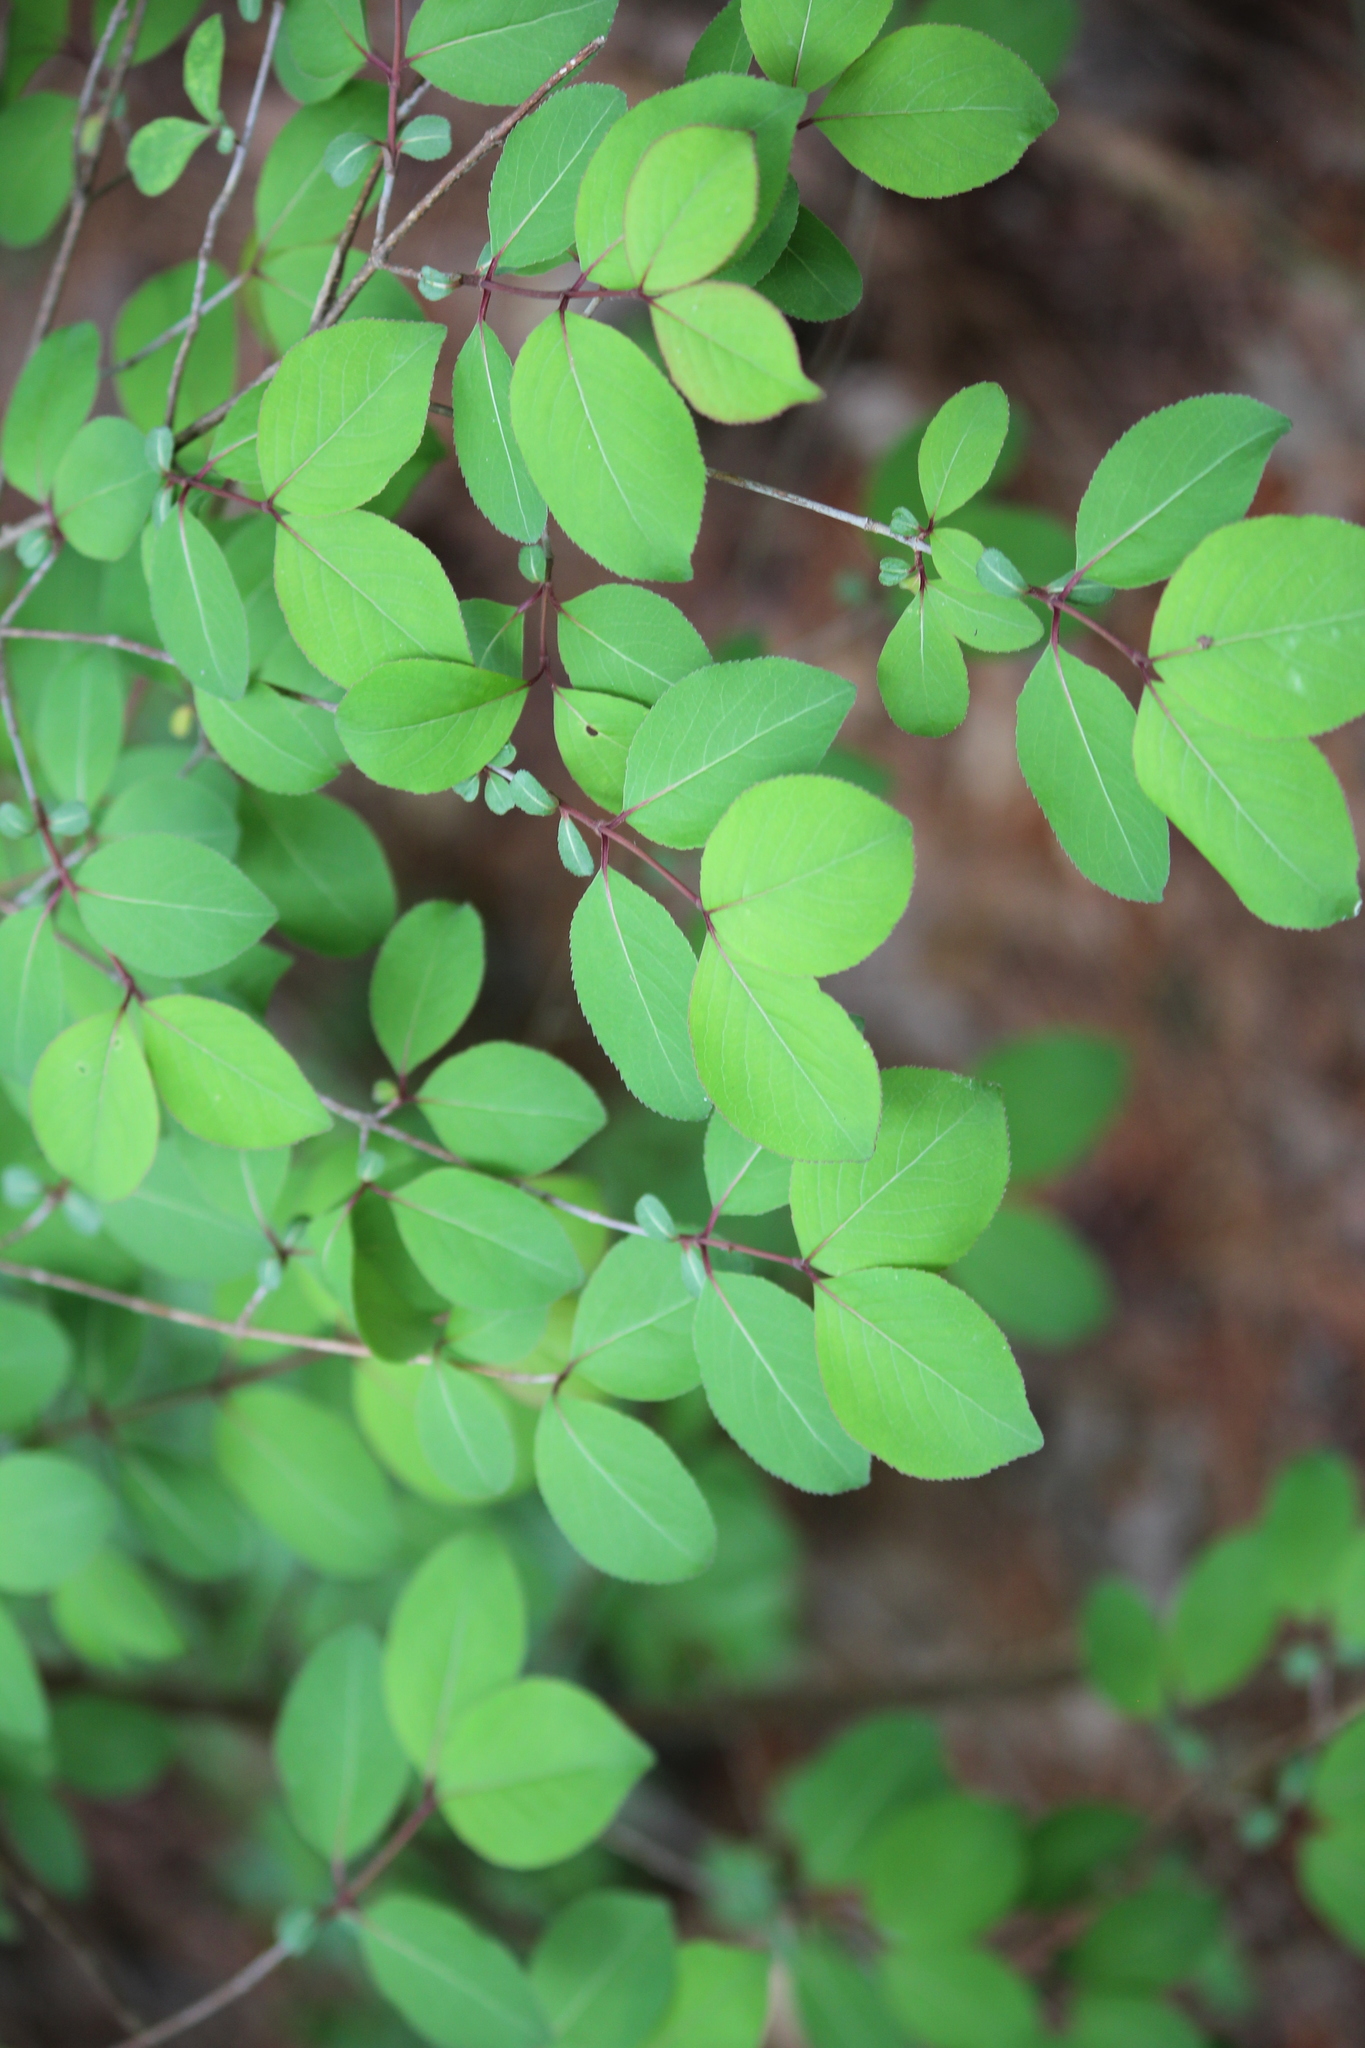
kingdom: Plantae
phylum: Tracheophyta
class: Magnoliopsida
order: Dipsacales
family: Viburnaceae
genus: Viburnum
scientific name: Viburnum prunifolium
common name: Black haw
